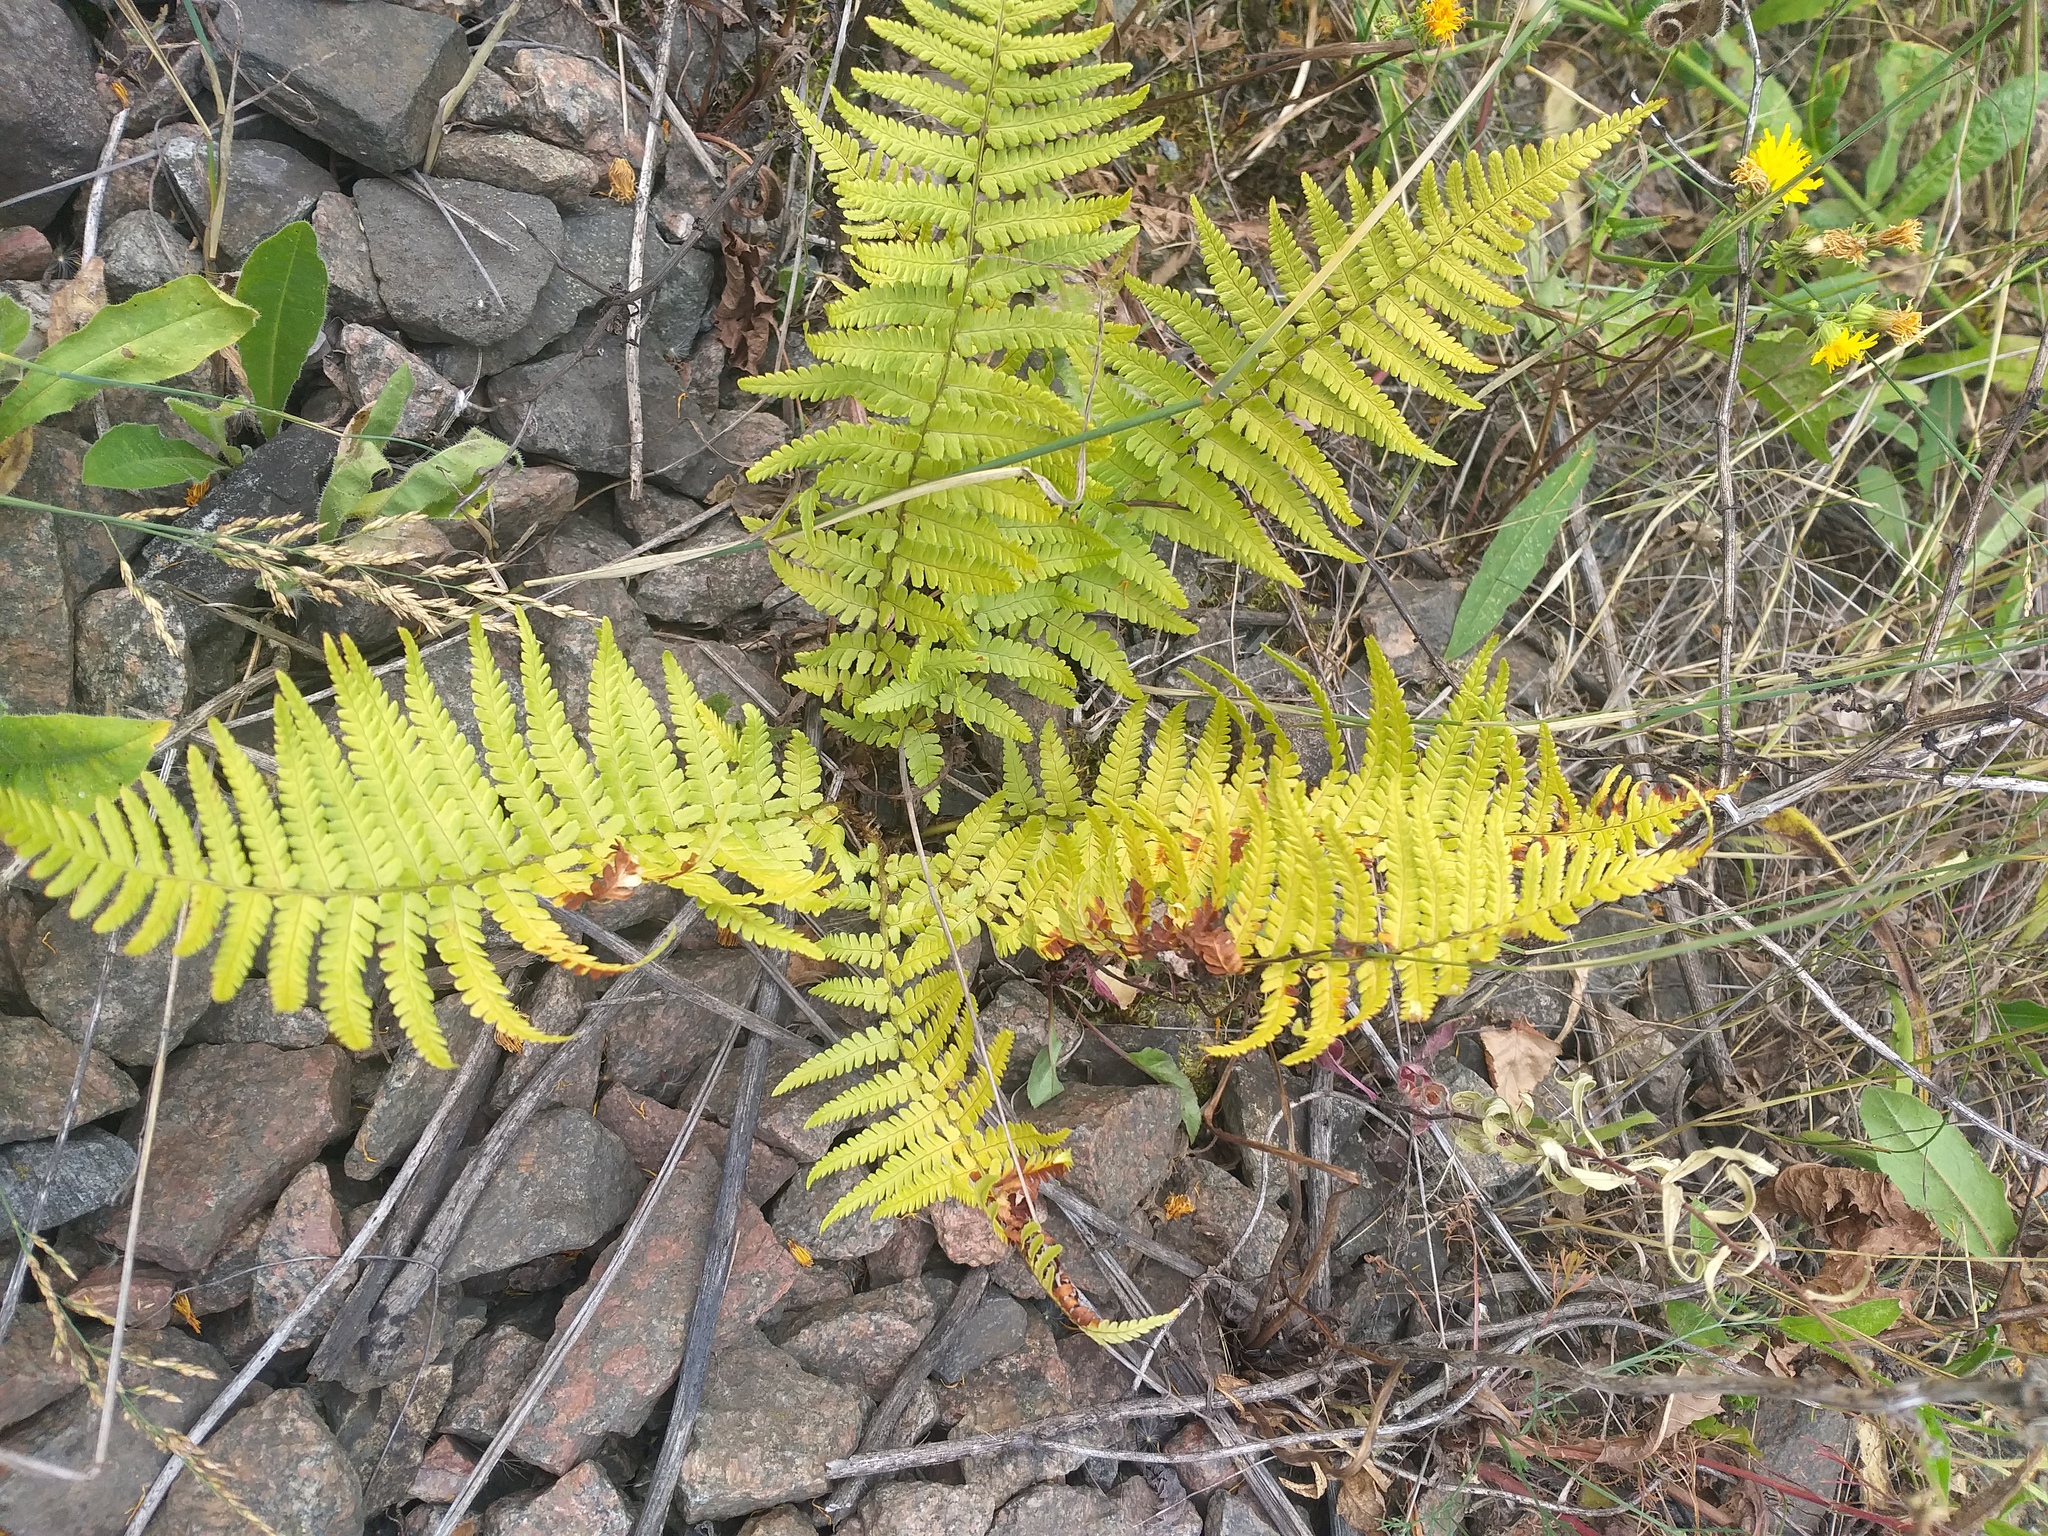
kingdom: Plantae
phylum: Tracheophyta
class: Polypodiopsida
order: Polypodiales
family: Dryopteridaceae
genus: Dryopteris
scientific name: Dryopteris filix-mas
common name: Male fern
